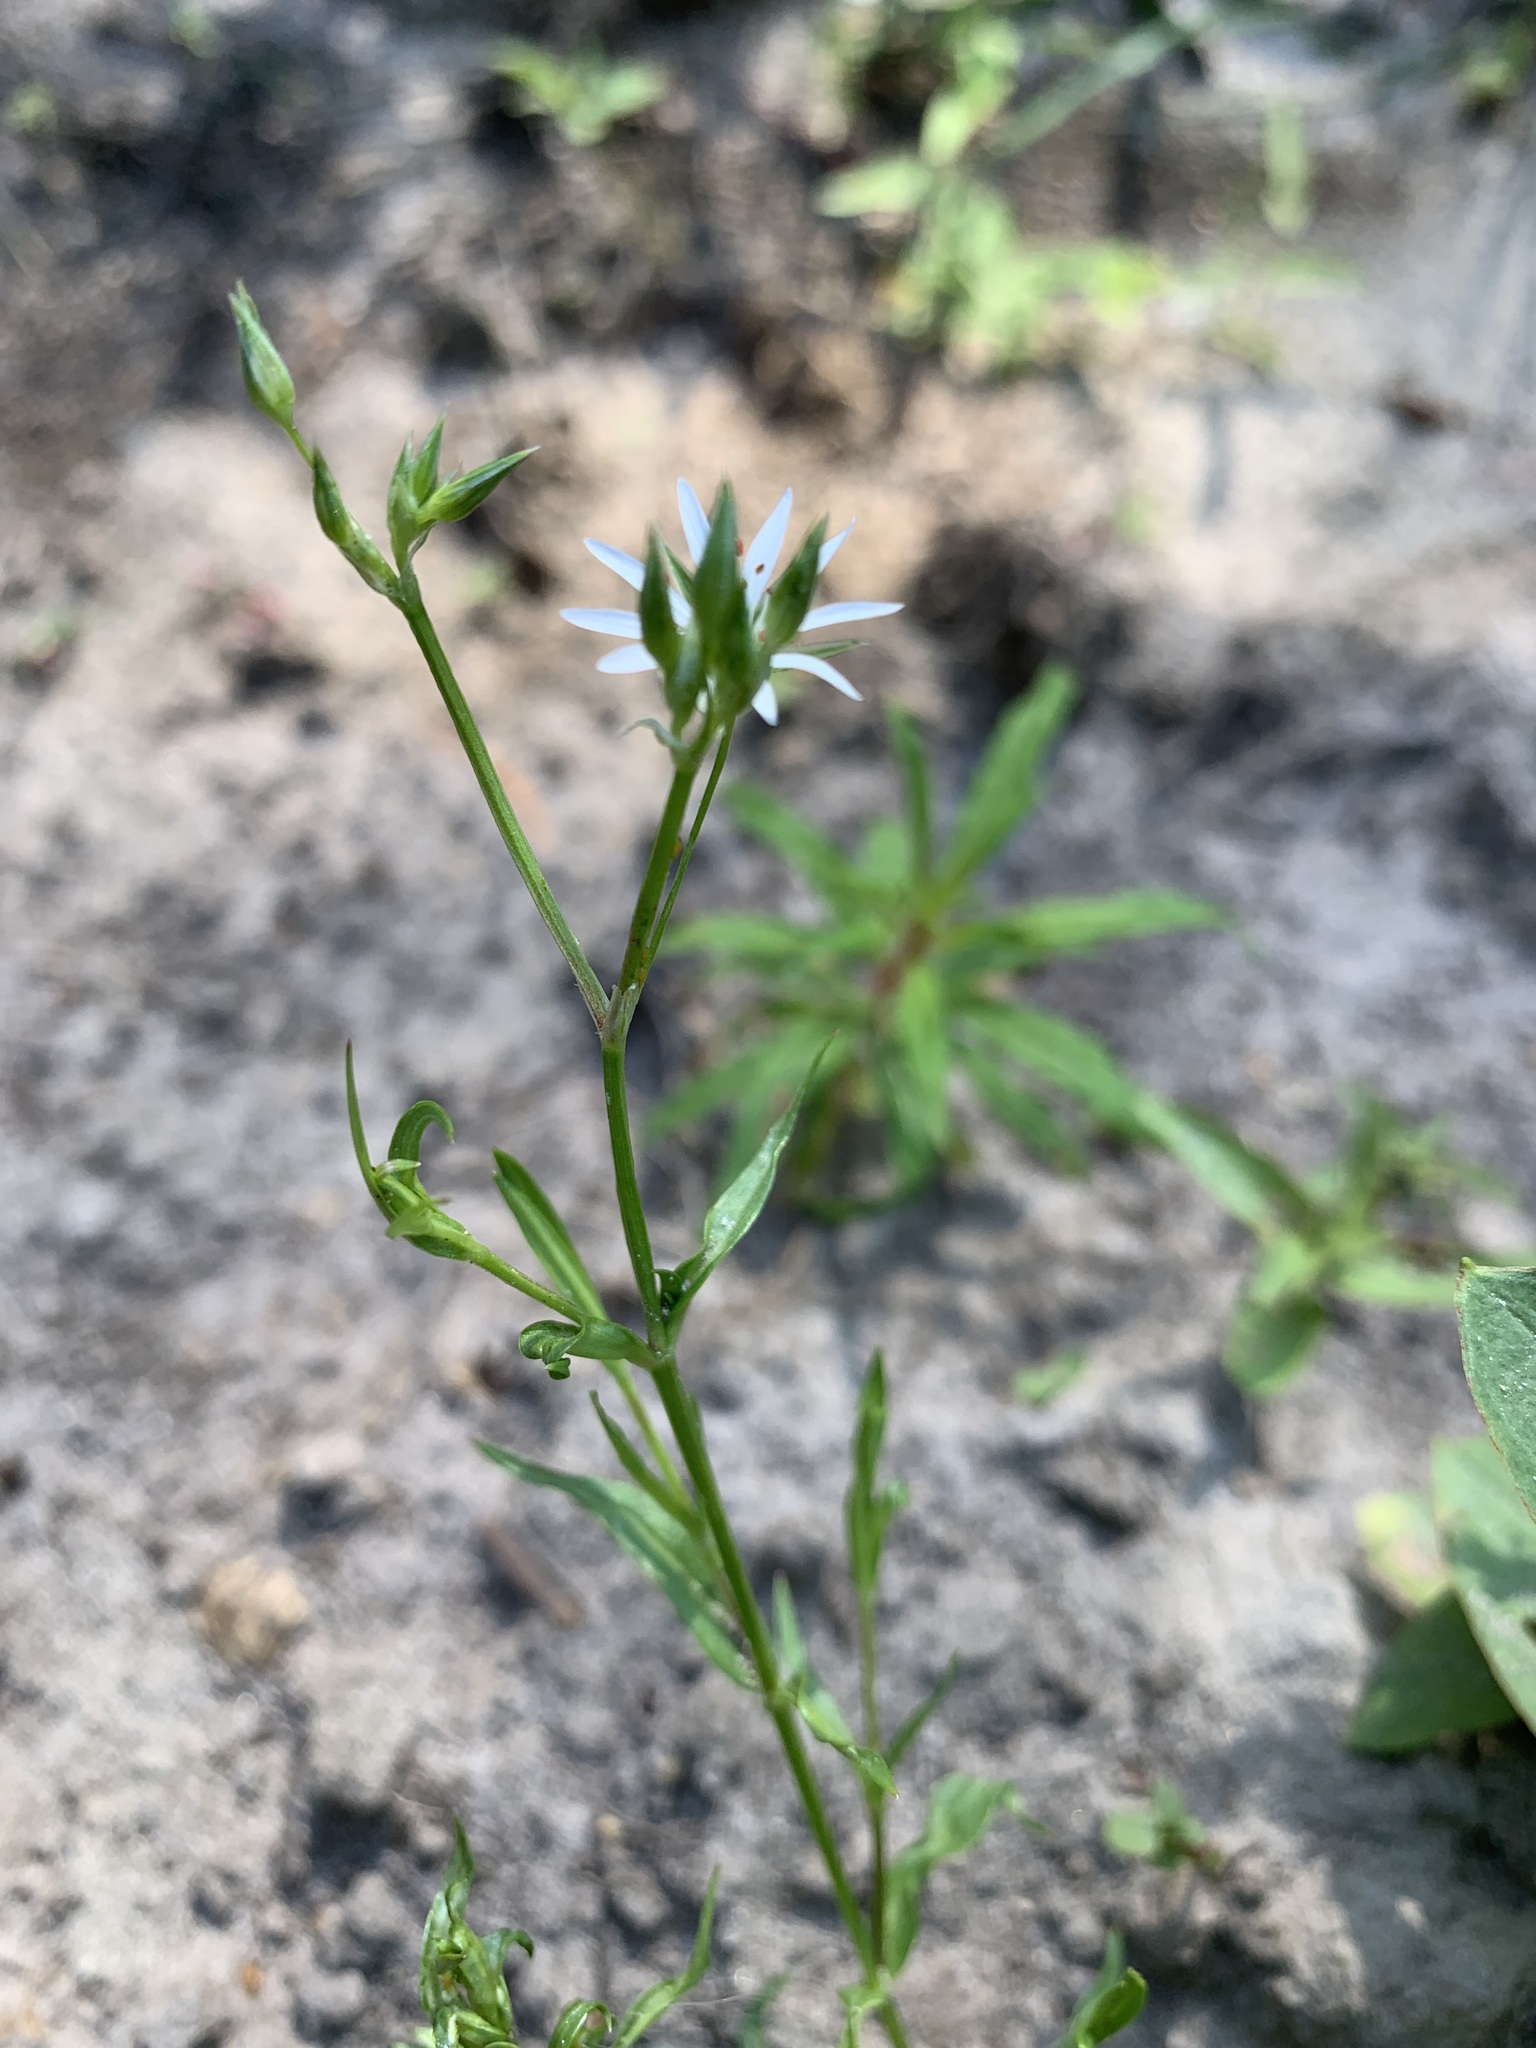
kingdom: Plantae
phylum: Tracheophyta
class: Magnoliopsida
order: Caryophyllales
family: Caryophyllaceae
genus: Stellaria
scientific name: Stellaria graminea
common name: Grass-like starwort
